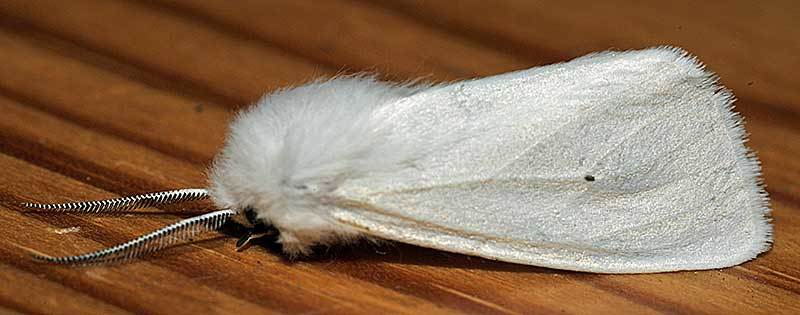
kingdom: Animalia
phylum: Arthropoda
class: Insecta
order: Lepidoptera
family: Erebidae
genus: Spilosoma
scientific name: Spilosoma virginica
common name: Virginia tiger moth
